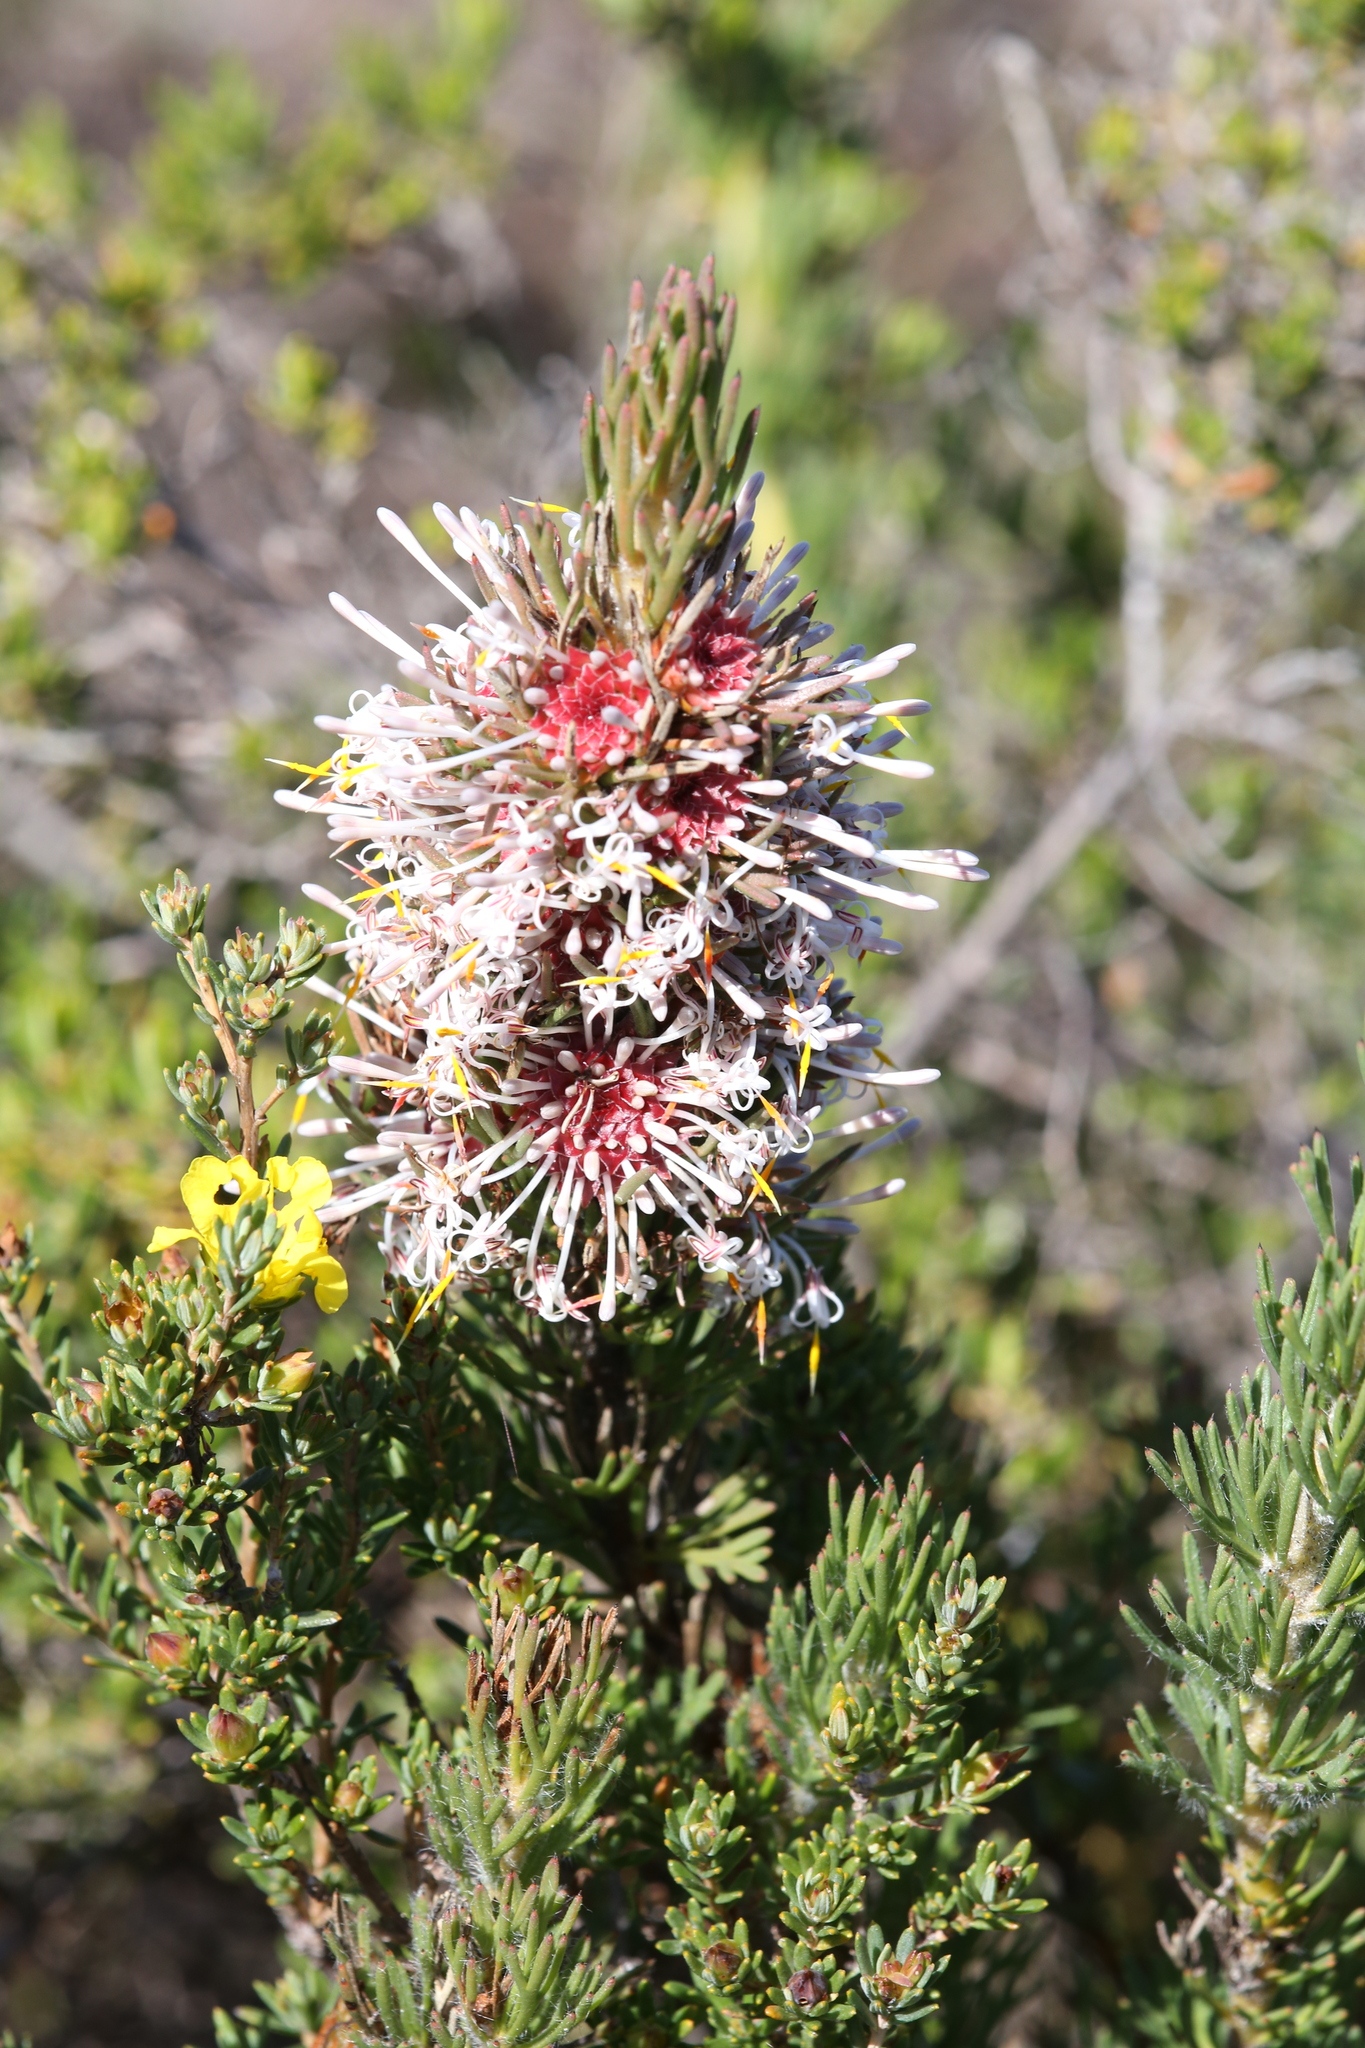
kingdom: Plantae
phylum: Tracheophyta
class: Magnoliopsida
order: Proteales
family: Proteaceae
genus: Isopogon
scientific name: Isopogon asper
